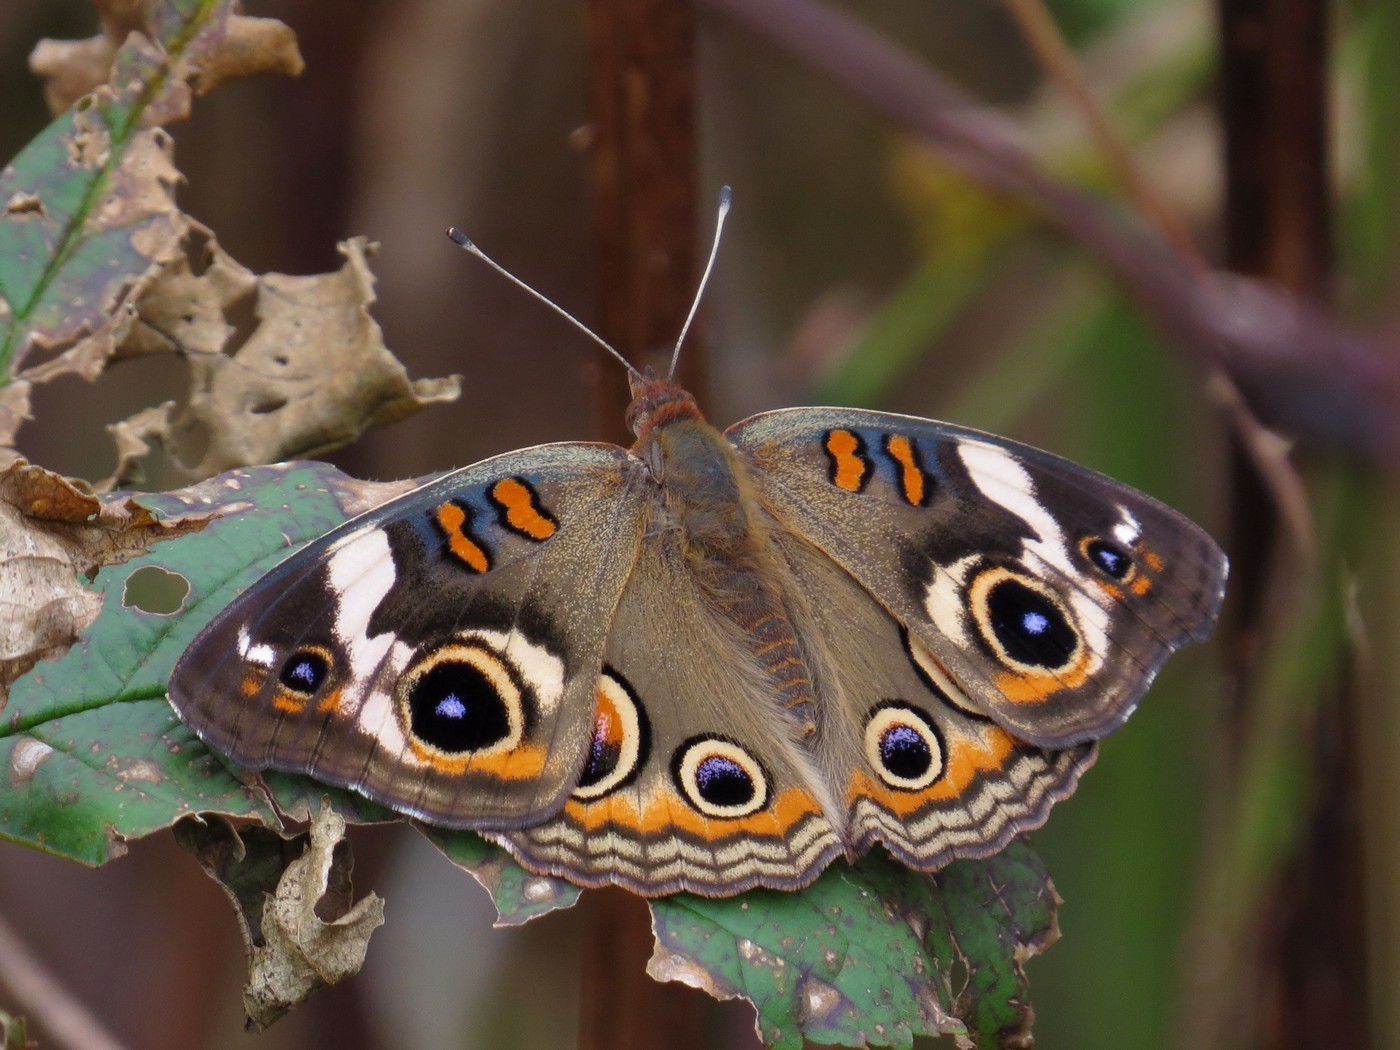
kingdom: Animalia
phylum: Arthropoda
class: Insecta
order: Lepidoptera
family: Nymphalidae
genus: Junonia
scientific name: Junonia coenia
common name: Common buckeye
